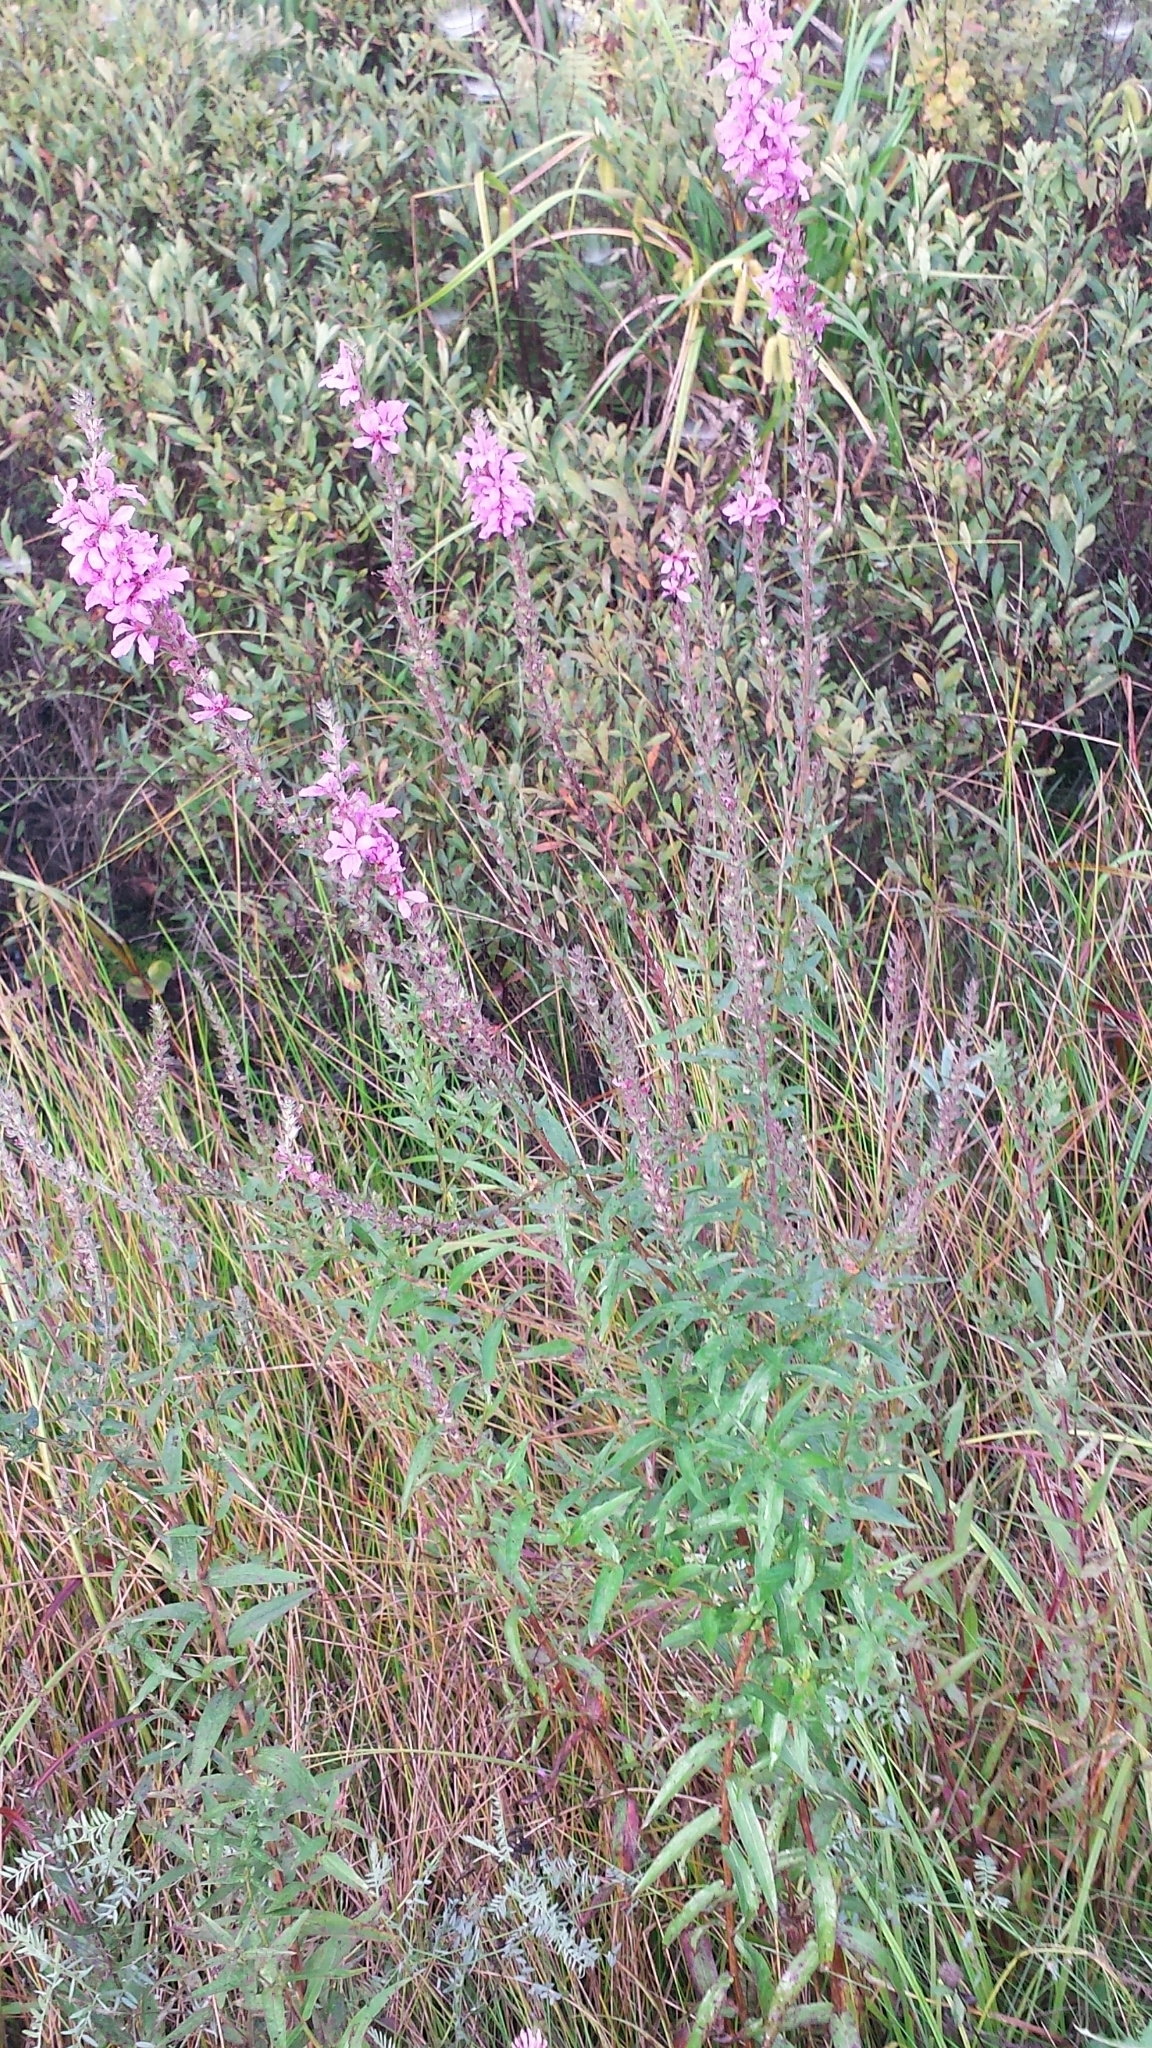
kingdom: Plantae
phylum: Tracheophyta
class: Magnoliopsida
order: Myrtales
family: Lythraceae
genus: Lythrum
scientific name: Lythrum salicaria
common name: Purple loosestrife
